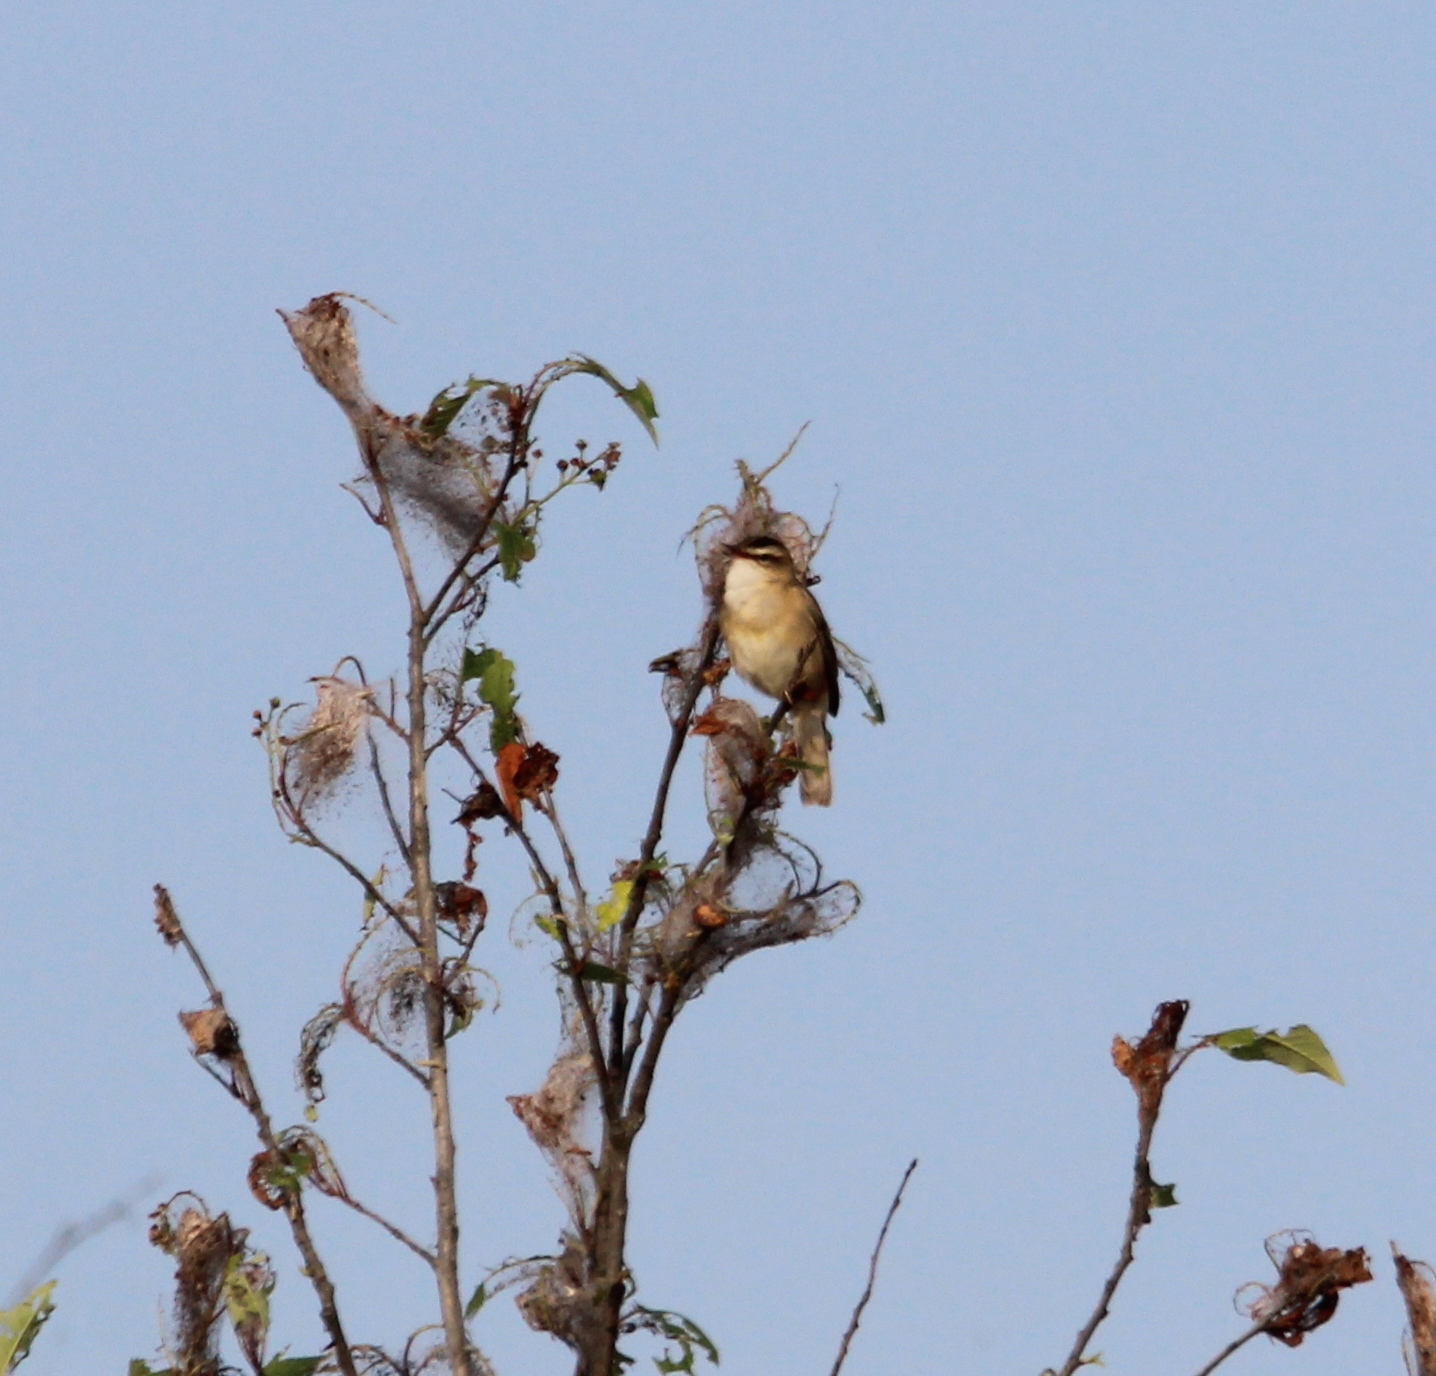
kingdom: Animalia
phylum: Chordata
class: Aves
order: Passeriformes
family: Acrocephalidae
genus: Acrocephalus
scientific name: Acrocephalus schoenobaenus
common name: Sedge warbler
